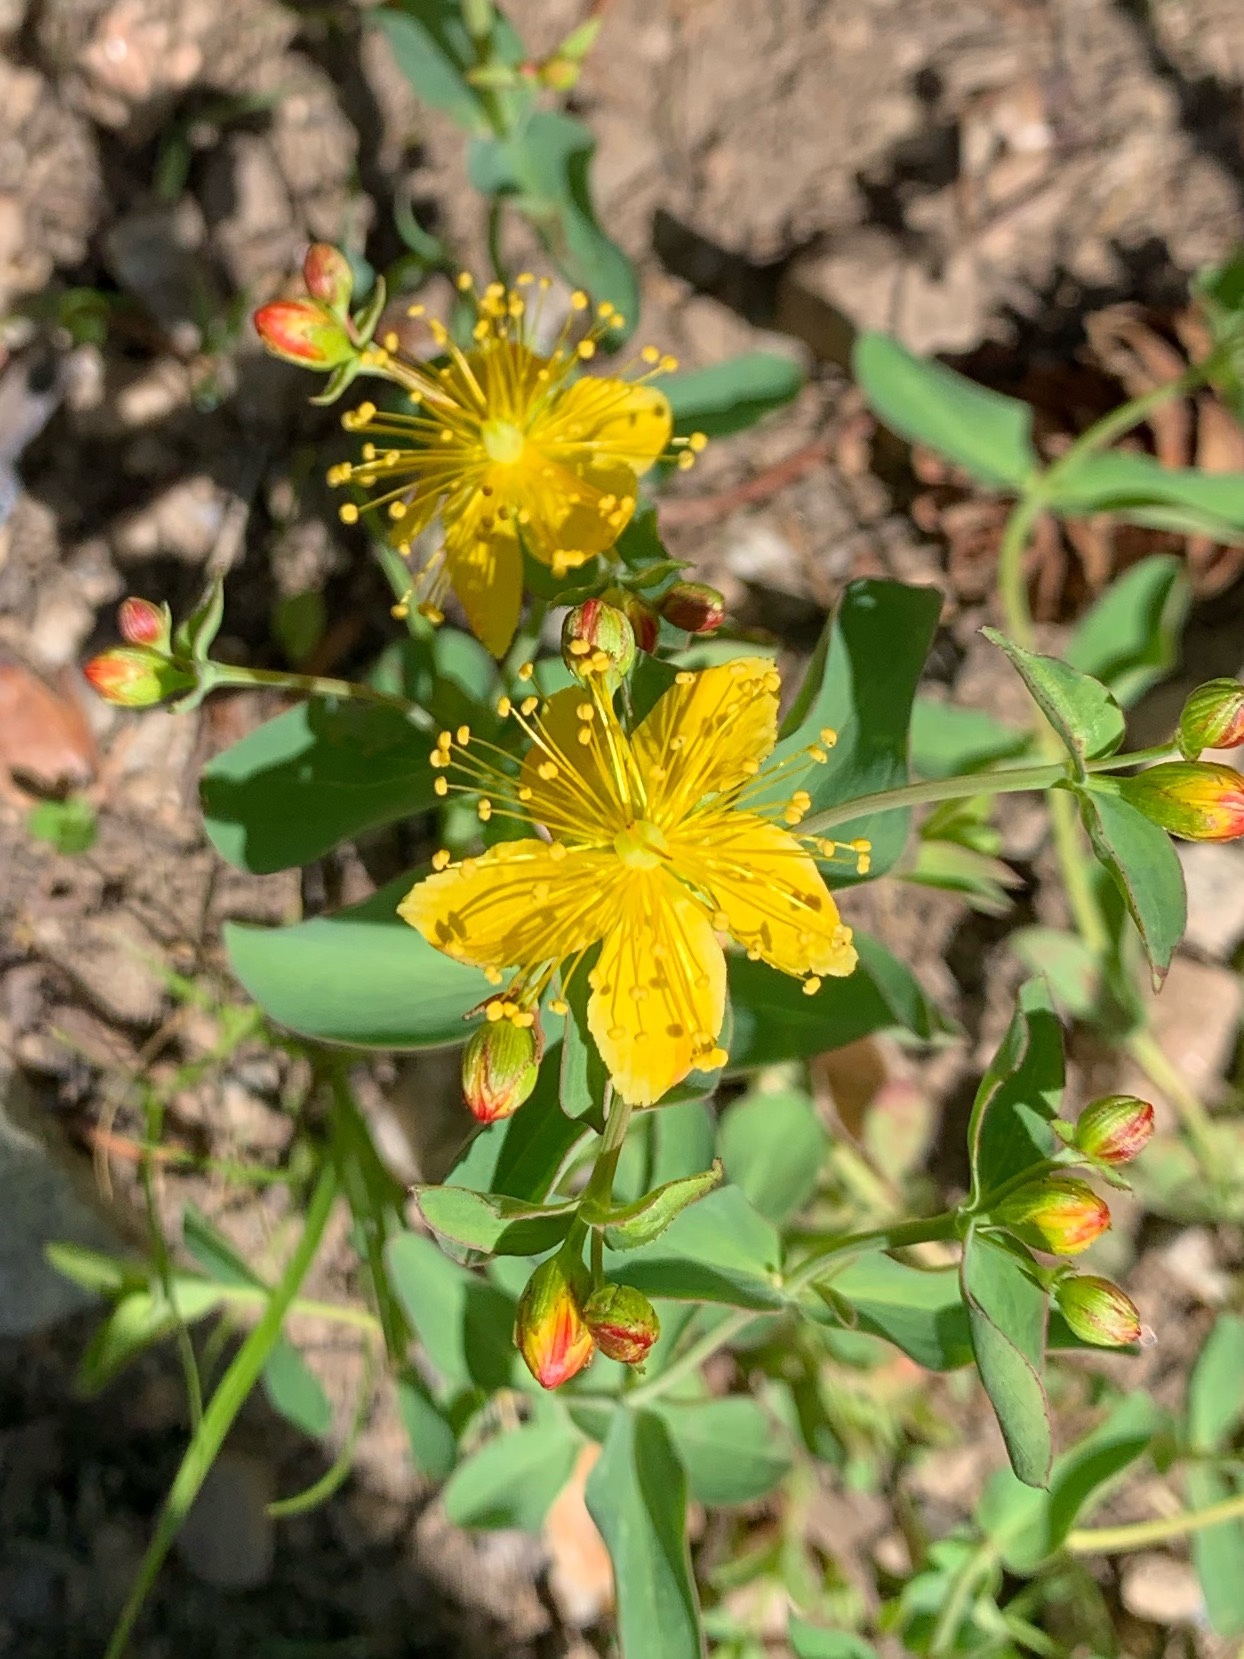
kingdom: Plantae
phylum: Tracheophyta
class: Magnoliopsida
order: Malpighiales
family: Hypericaceae
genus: Hypericum
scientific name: Hypericum scouleri
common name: Scouler's st. john's-wort
